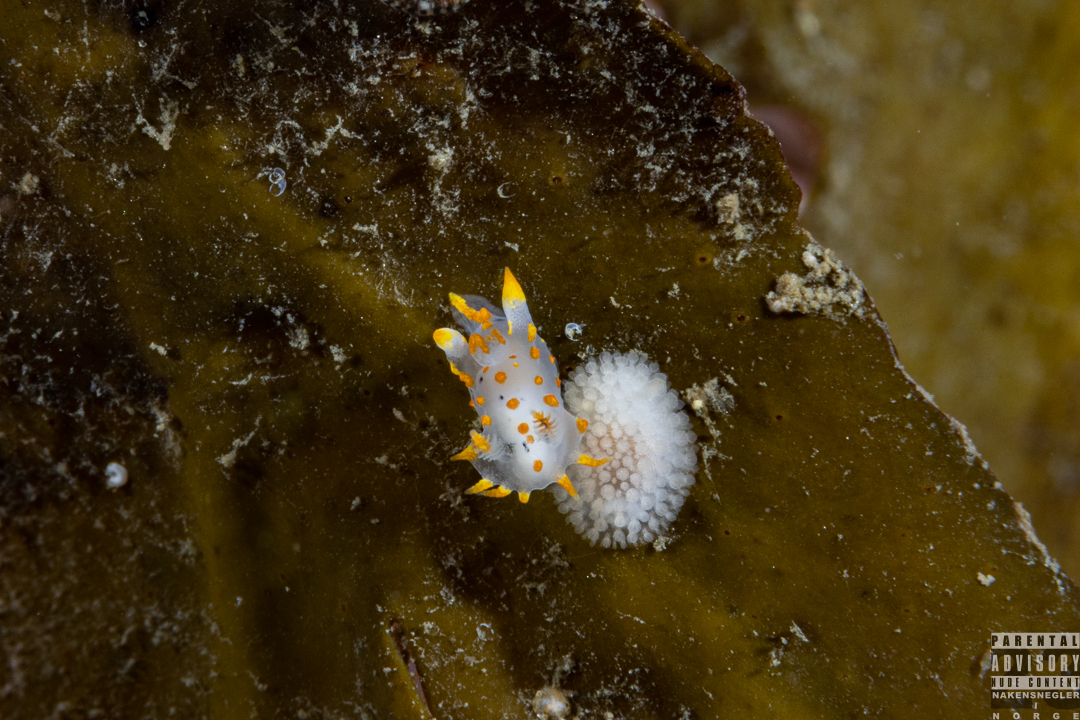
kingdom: Animalia
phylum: Mollusca
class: Gastropoda
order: Nudibranchia
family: Onchidorididae
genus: Onchidoris
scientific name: Onchidoris muricata
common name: Rough doris
